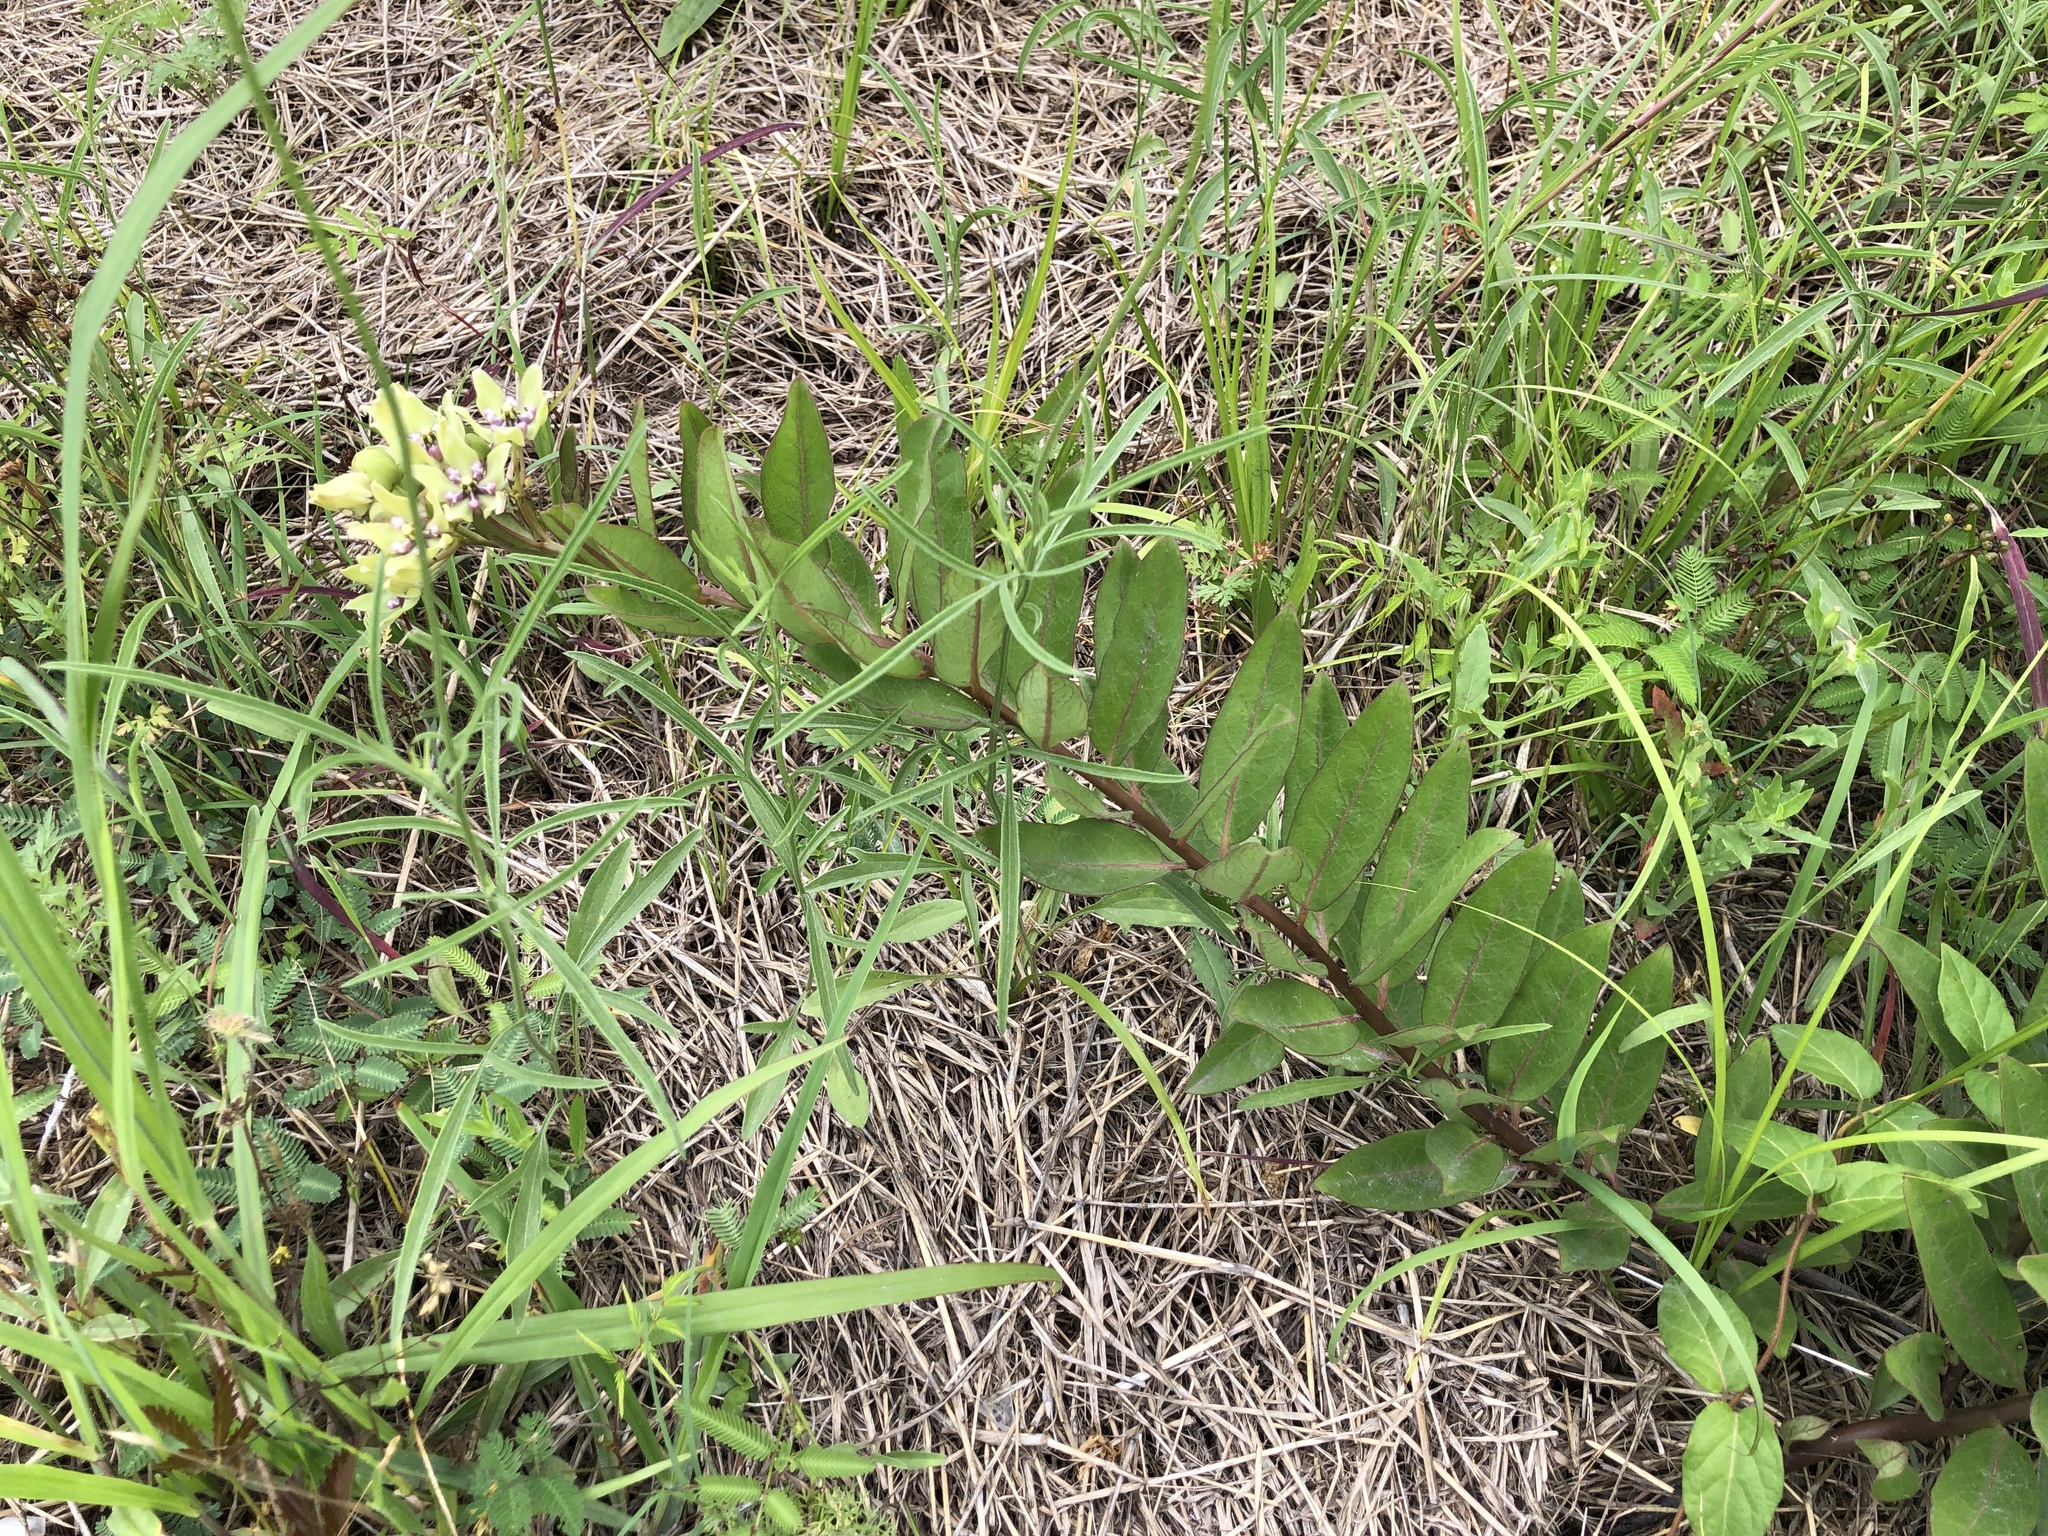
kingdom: Plantae
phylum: Tracheophyta
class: Magnoliopsida
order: Gentianales
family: Apocynaceae
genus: Asclepias
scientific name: Asclepias viridis
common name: Antelope-horns
